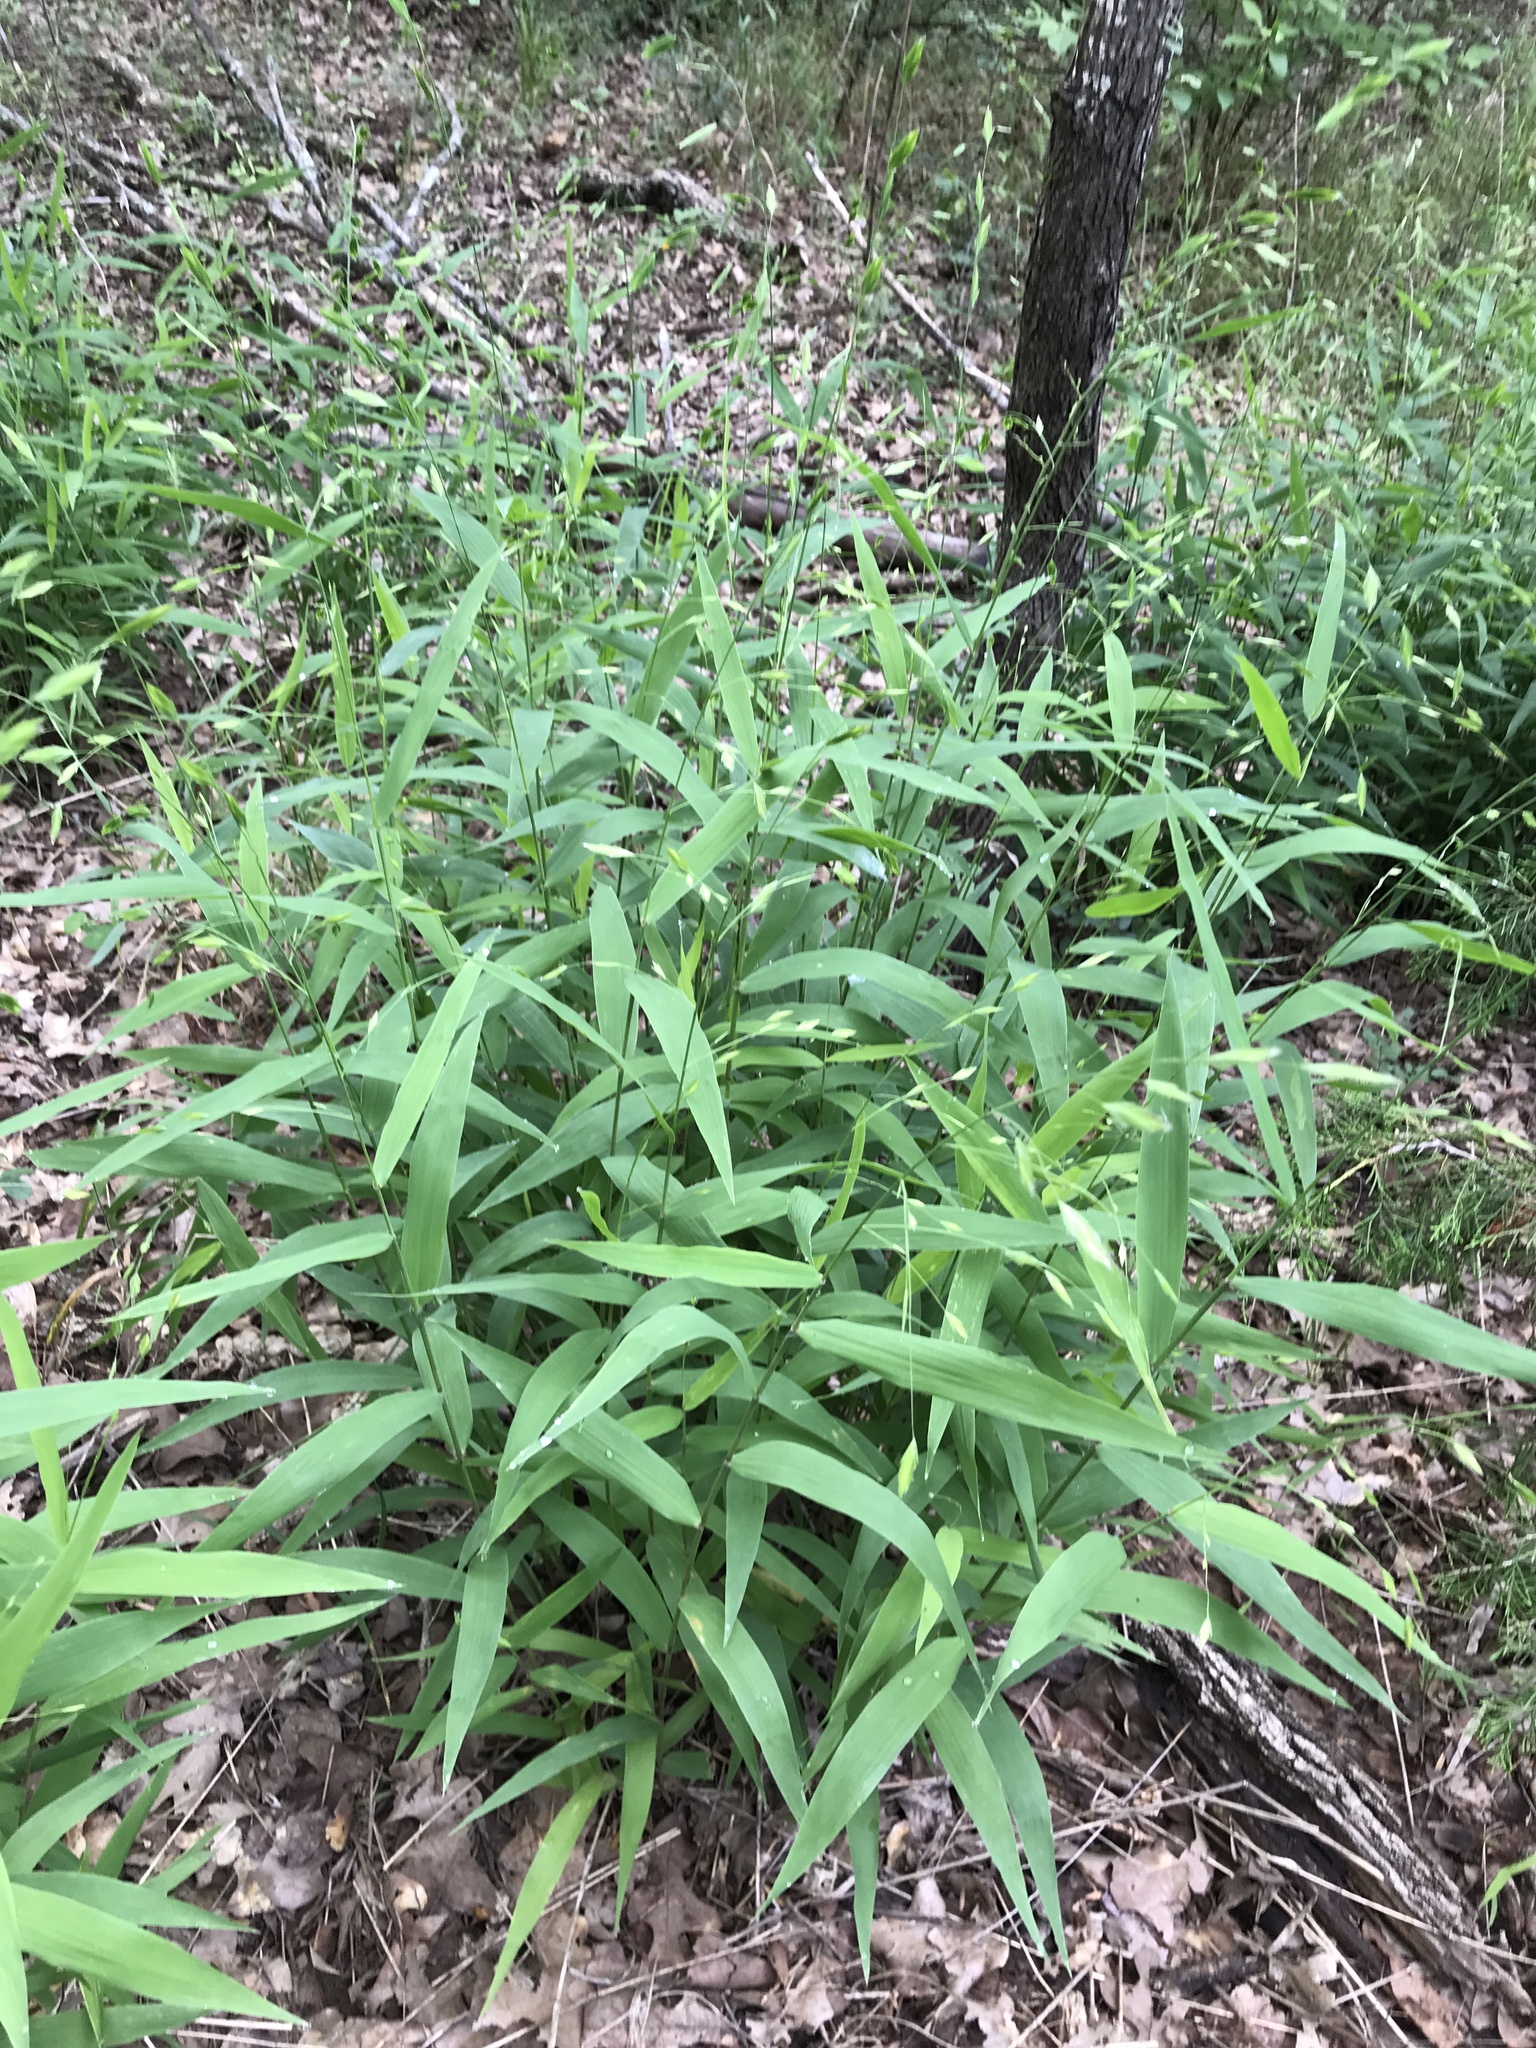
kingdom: Plantae
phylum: Tracheophyta
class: Liliopsida
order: Poales
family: Poaceae
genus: Chasmanthium
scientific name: Chasmanthium latifolium
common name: Broad-leaved chasmanthium
